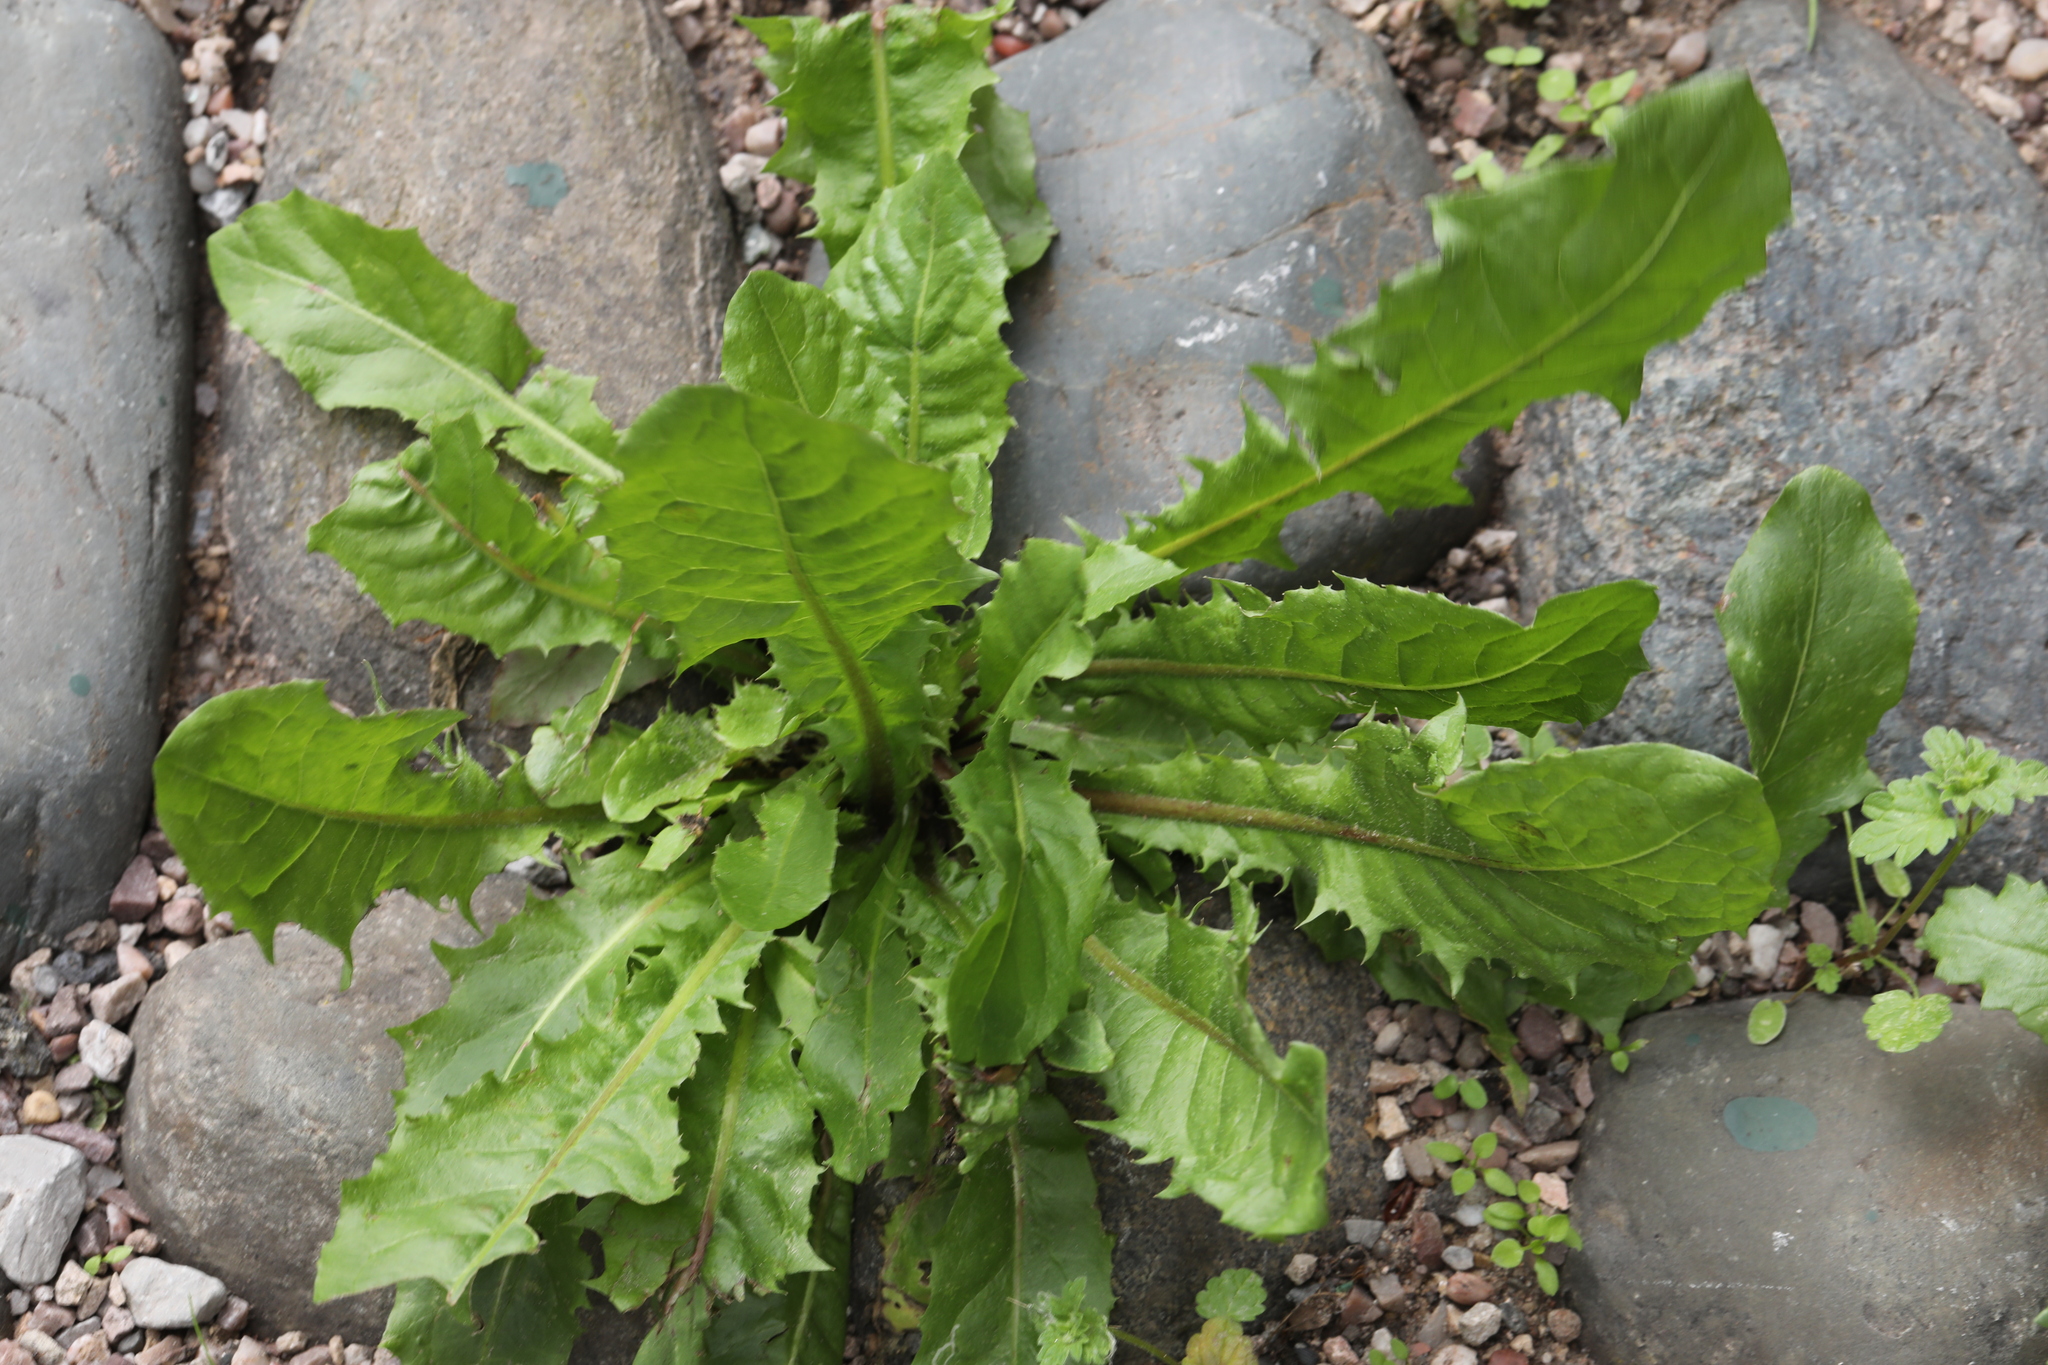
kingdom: Plantae
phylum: Tracheophyta
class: Magnoliopsida
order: Asterales
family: Asteraceae
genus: Taraxacum
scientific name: Taraxacum officinale
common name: Common dandelion
